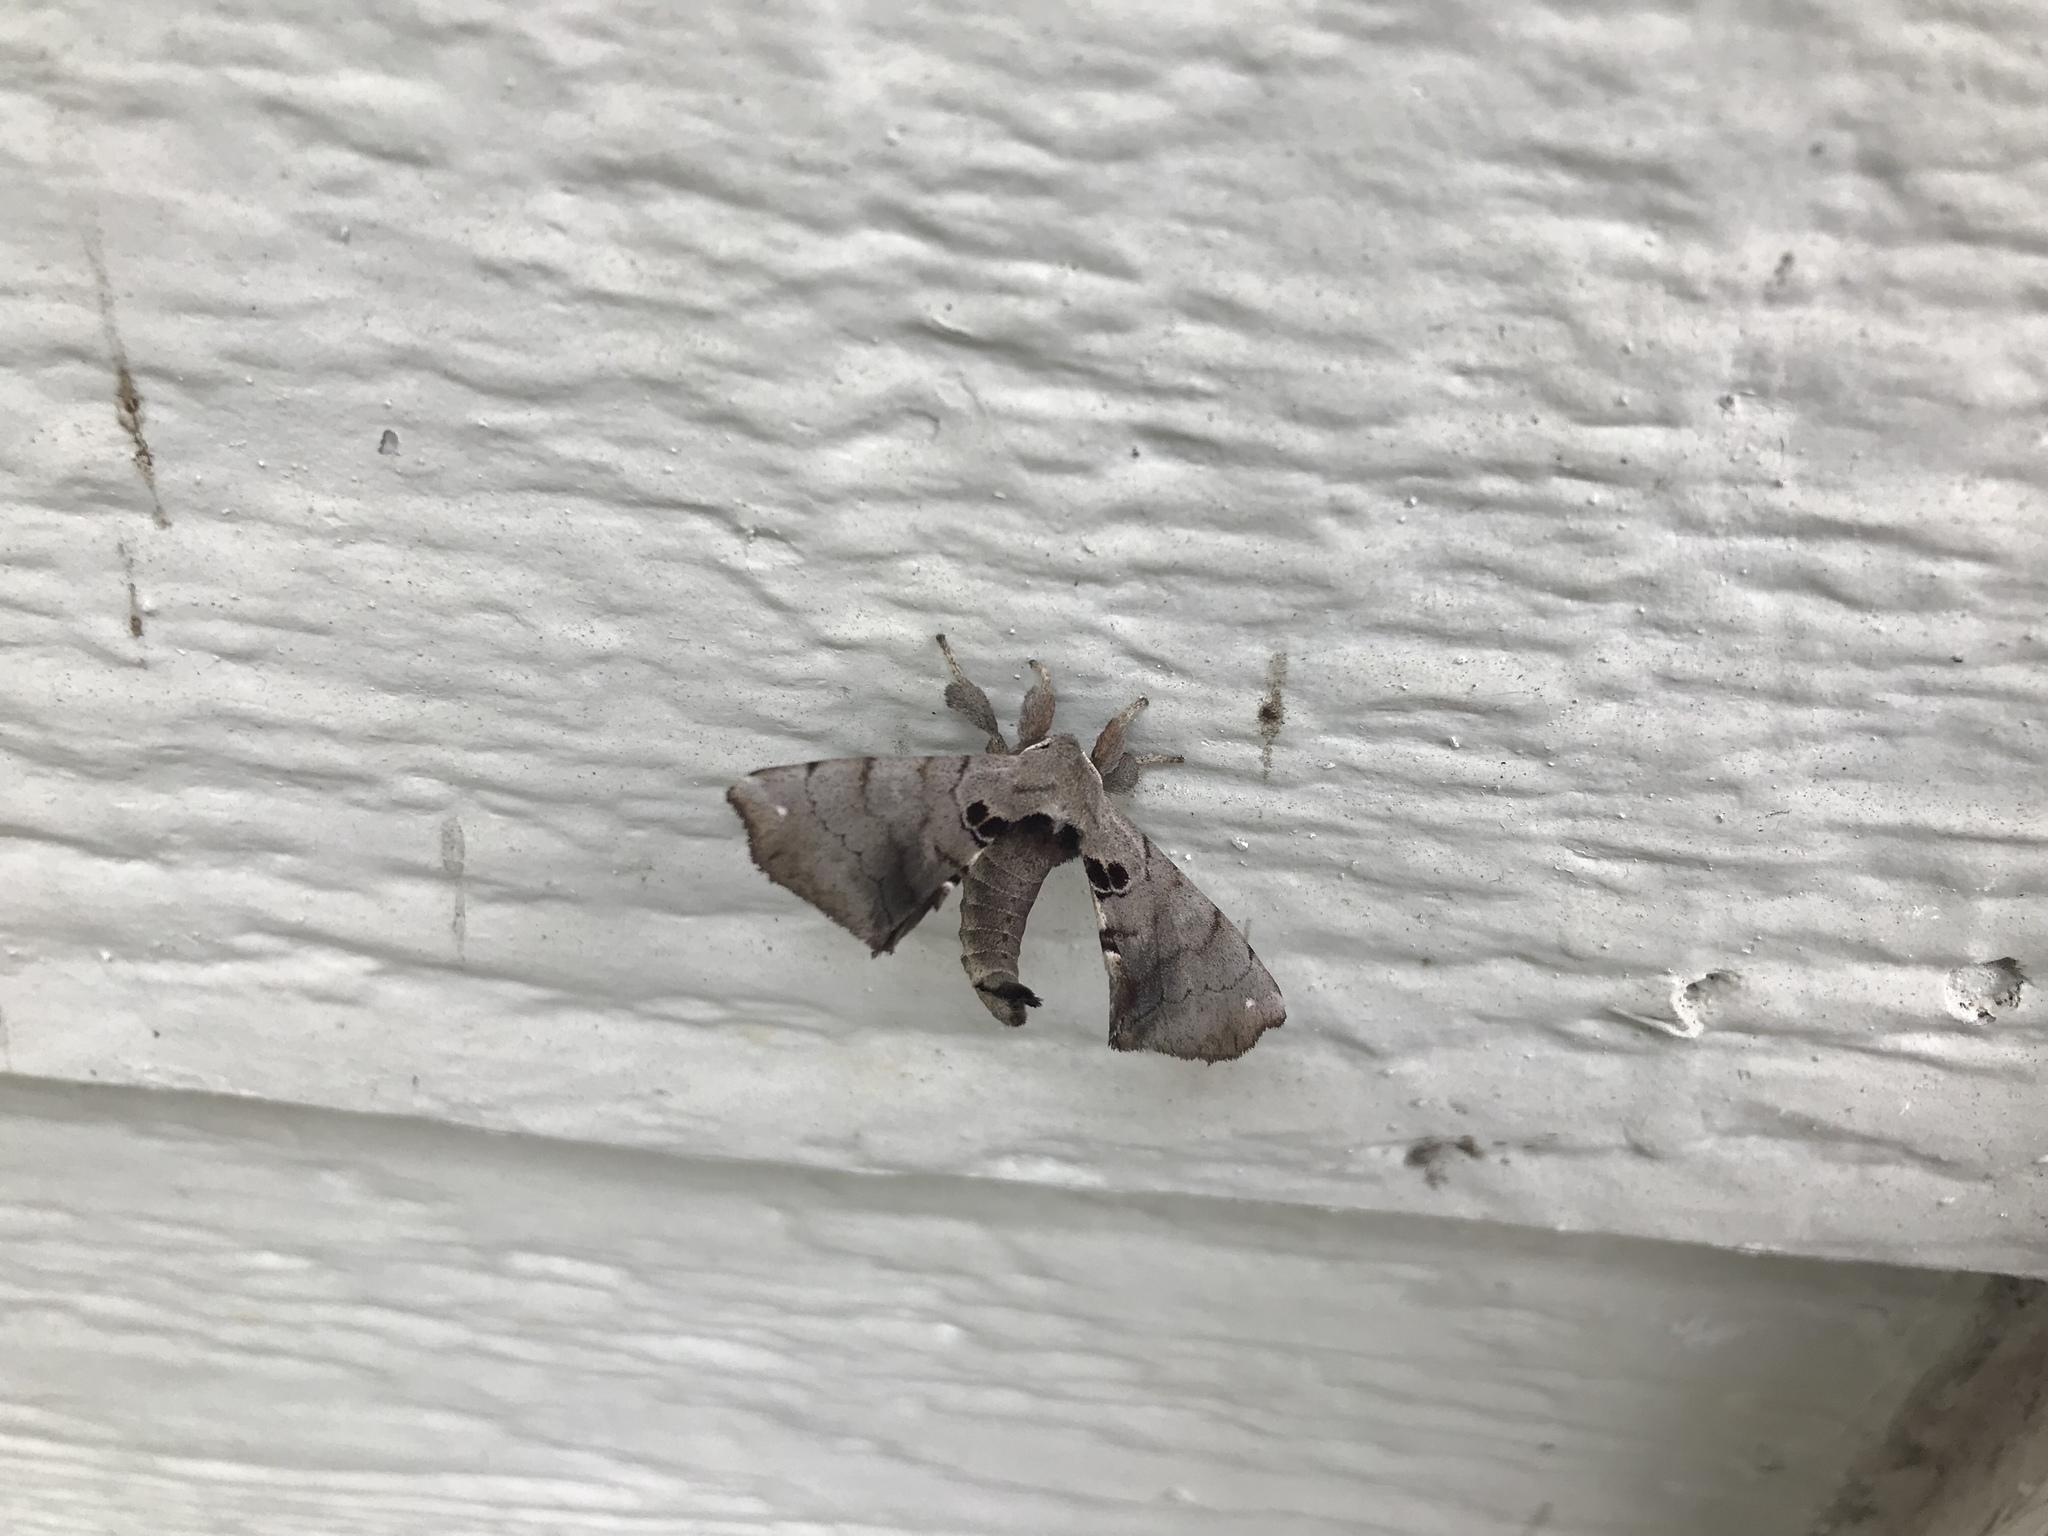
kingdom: Animalia
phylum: Arthropoda
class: Insecta
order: Lepidoptera
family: Apatelodidae
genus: Hygrochroa
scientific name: Hygrochroa Apatelodes torrefacta
